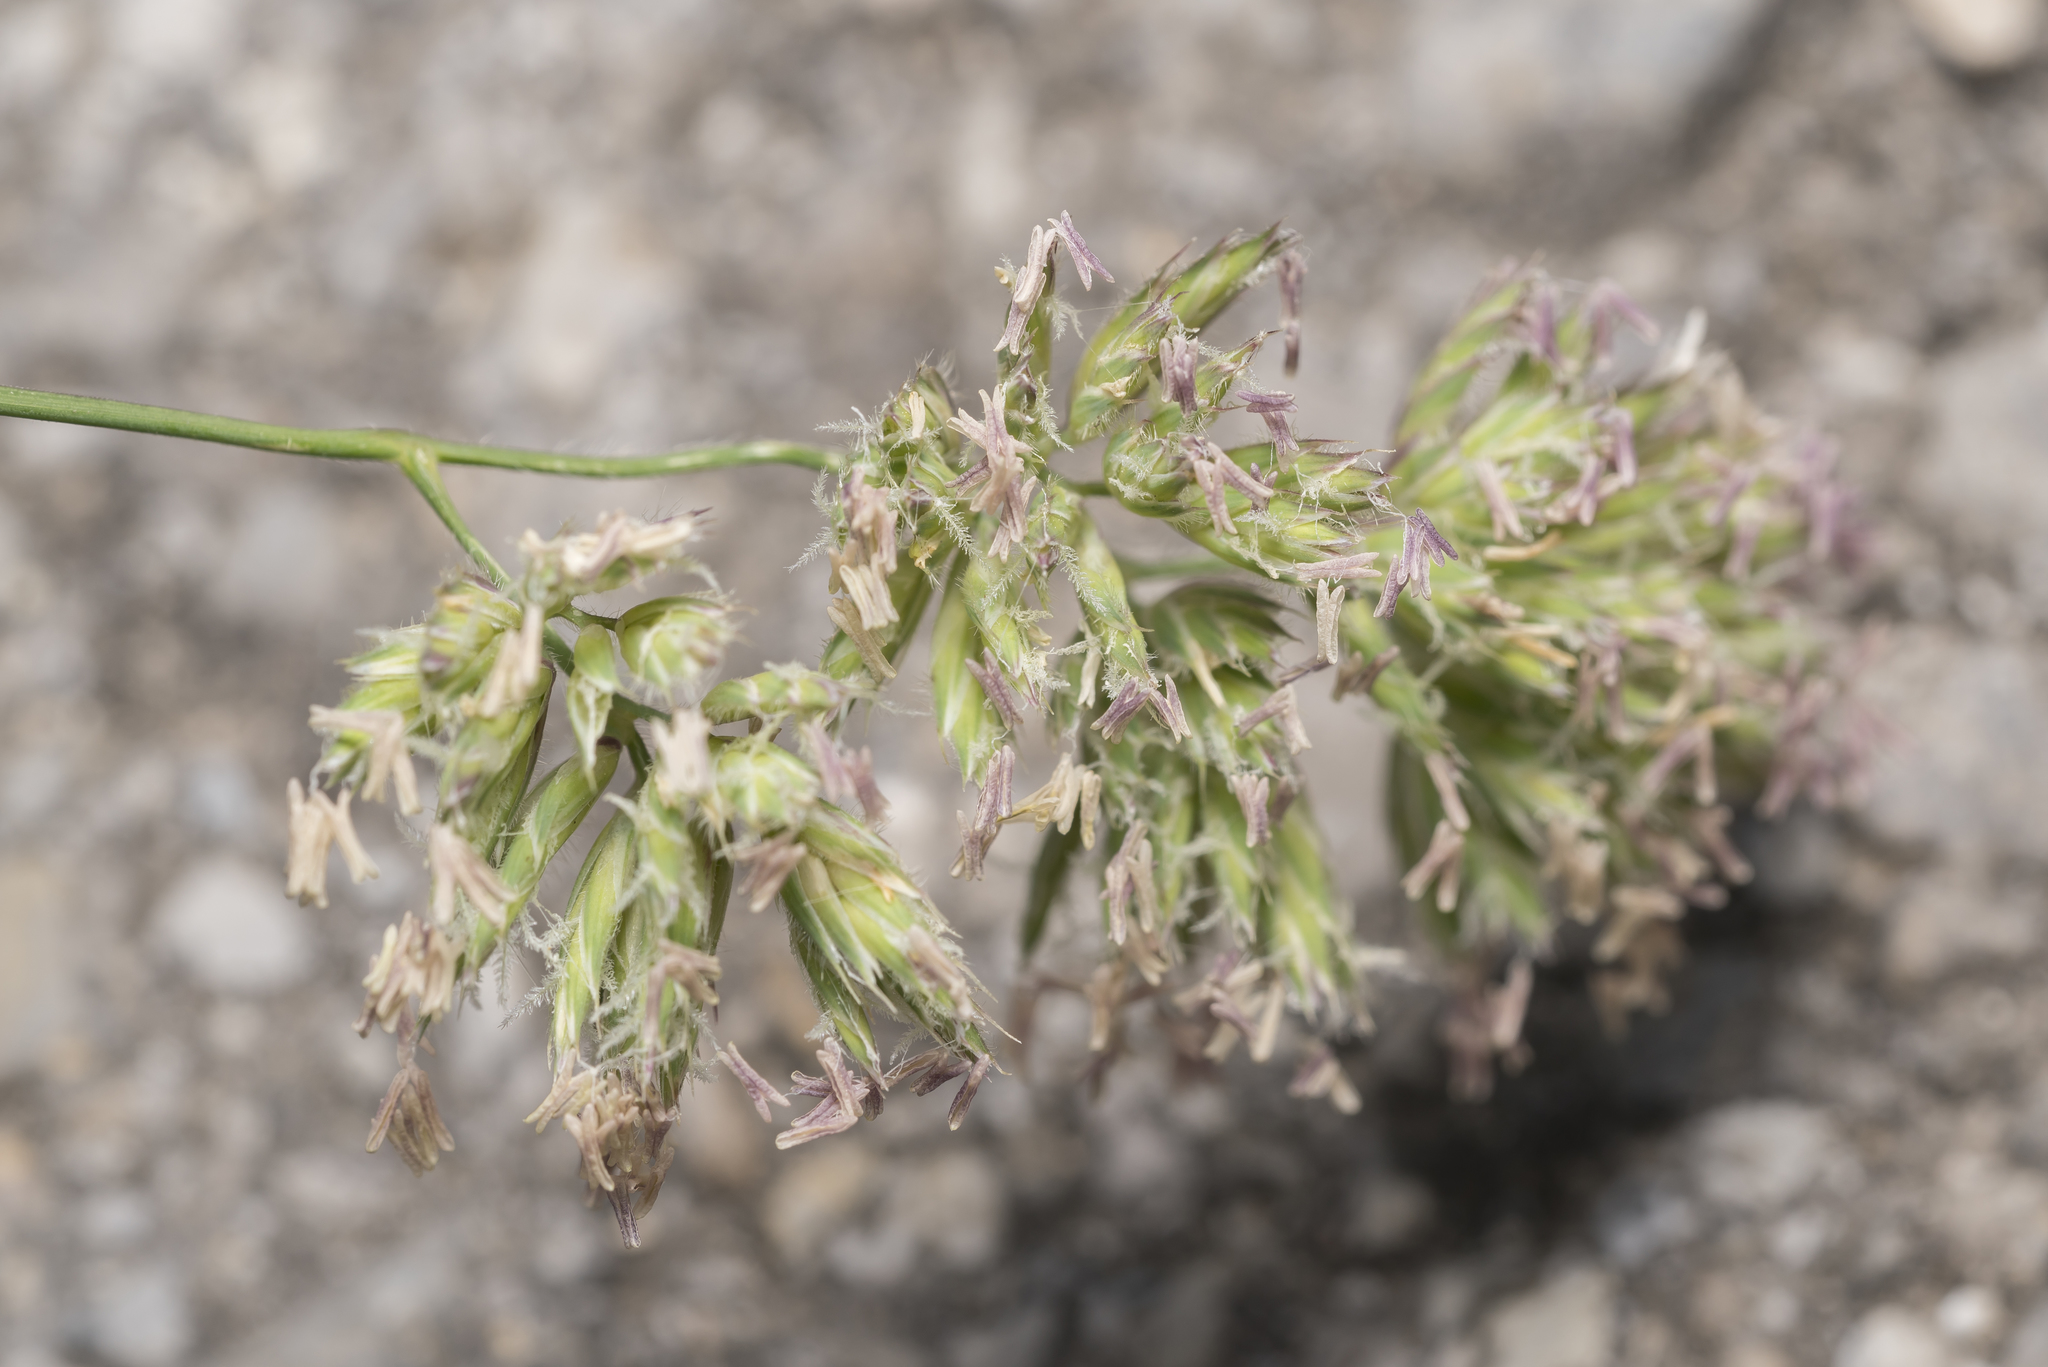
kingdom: Plantae
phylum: Tracheophyta
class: Liliopsida
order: Poales
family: Poaceae
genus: Dactylis
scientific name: Dactylis glomerata
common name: Orchardgrass
